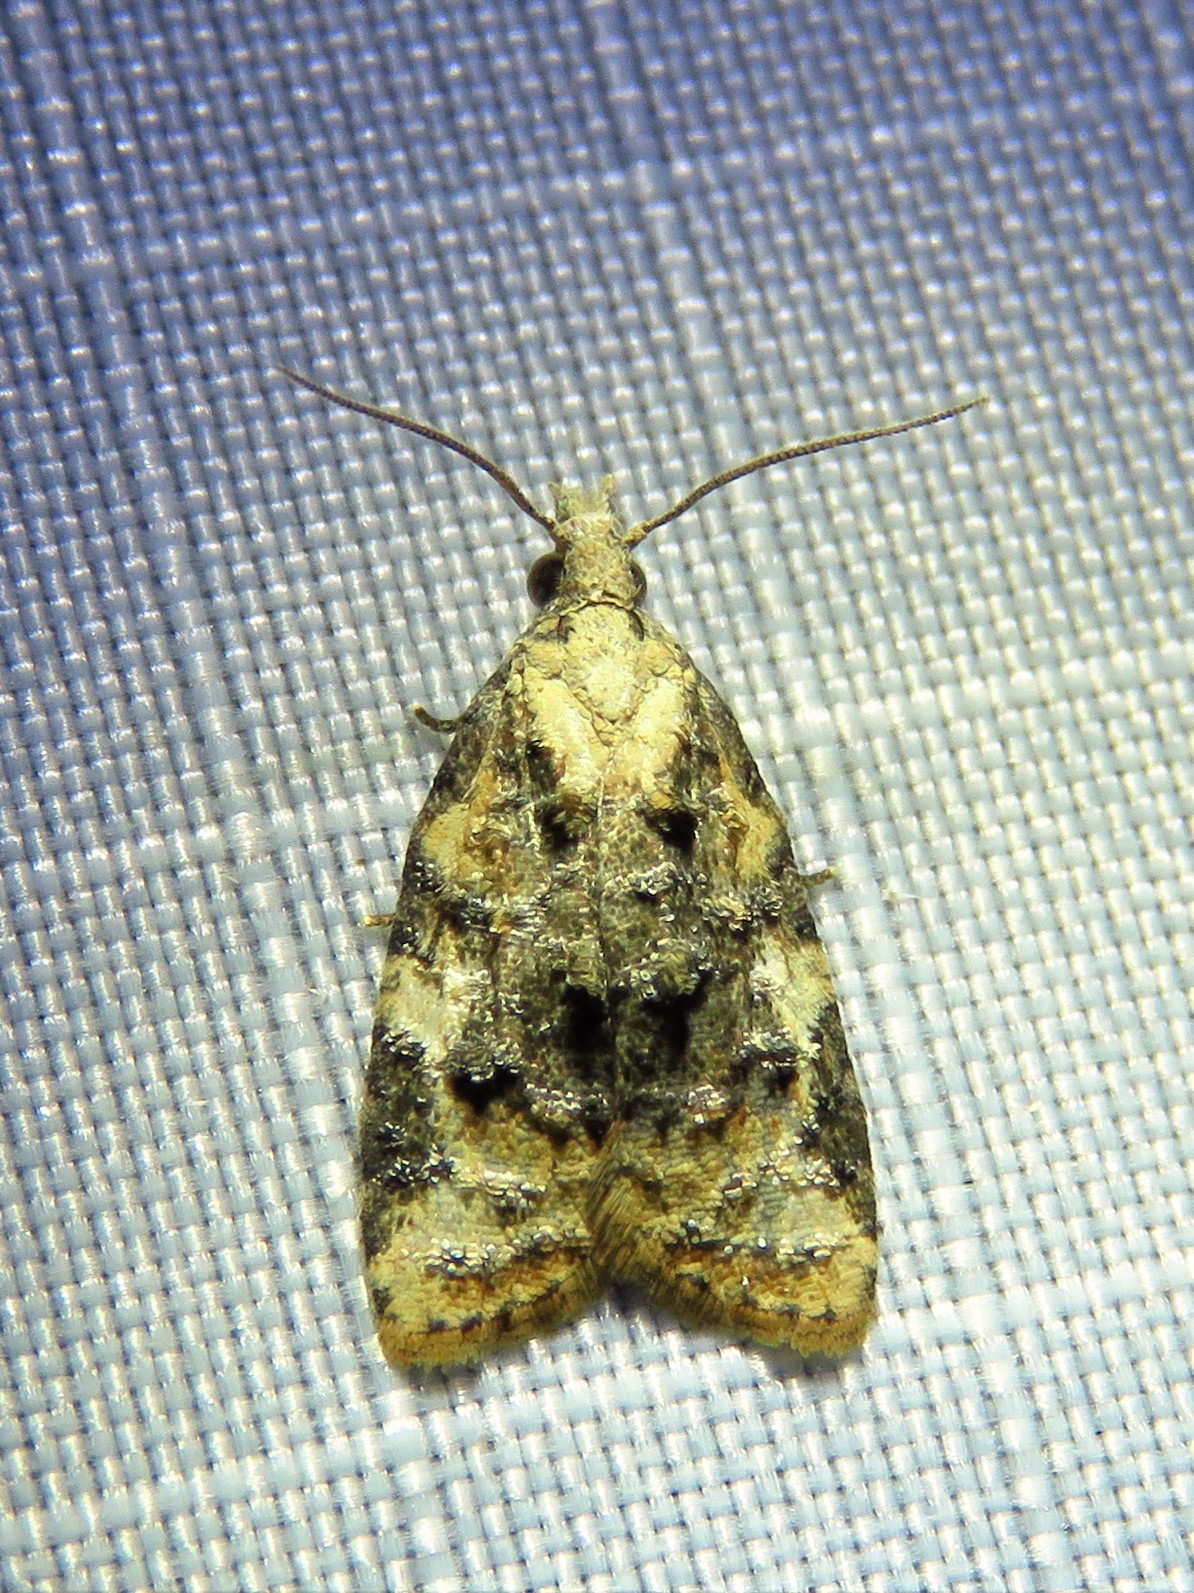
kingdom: Animalia
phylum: Arthropoda
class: Insecta
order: Lepidoptera
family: Tortricidae
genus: Platynota
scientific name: Platynota exasperatana
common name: Exasperating platynota moth
